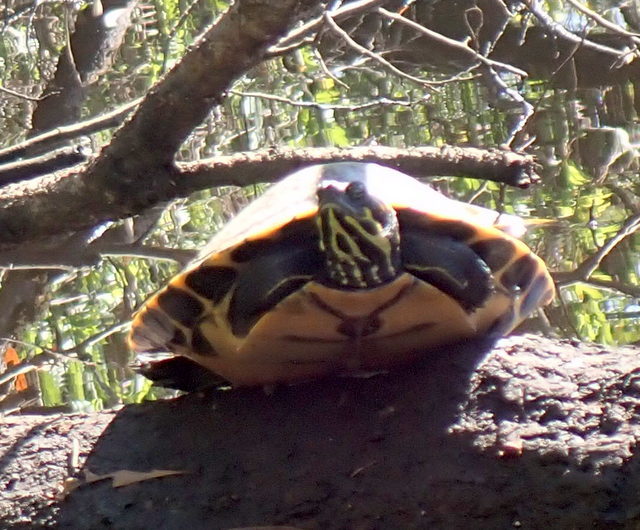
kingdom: Animalia
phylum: Chordata
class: Testudines
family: Emydidae
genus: Pseudemys
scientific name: Pseudemys concinna
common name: Eastern river cooter
